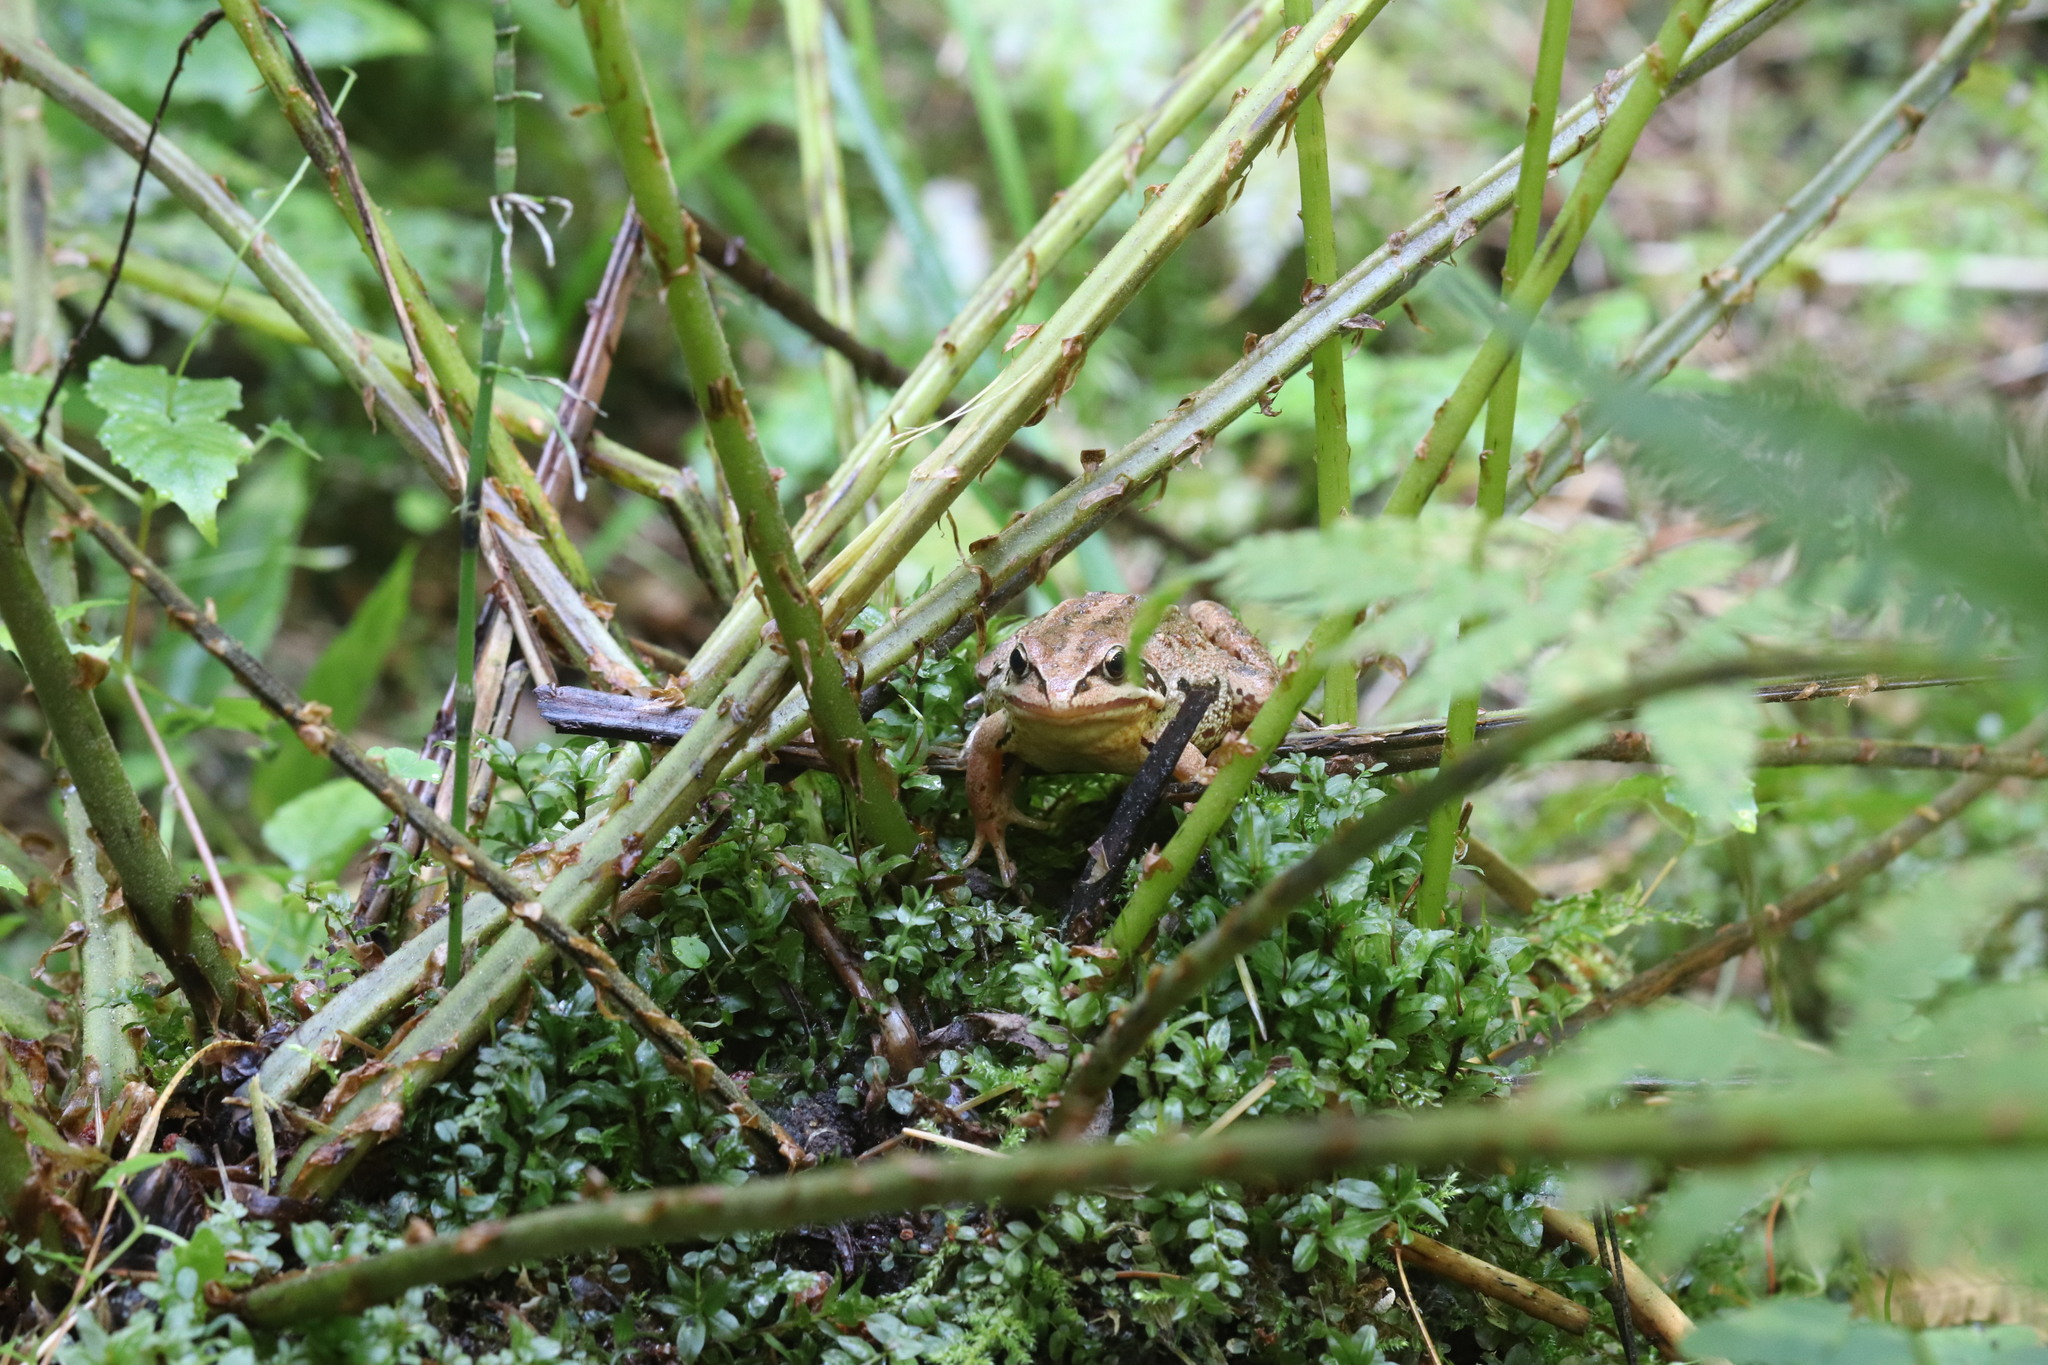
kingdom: Animalia
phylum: Chordata
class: Amphibia
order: Anura
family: Ranidae
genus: Rana
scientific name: Rana arvalis
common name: Moor frog
